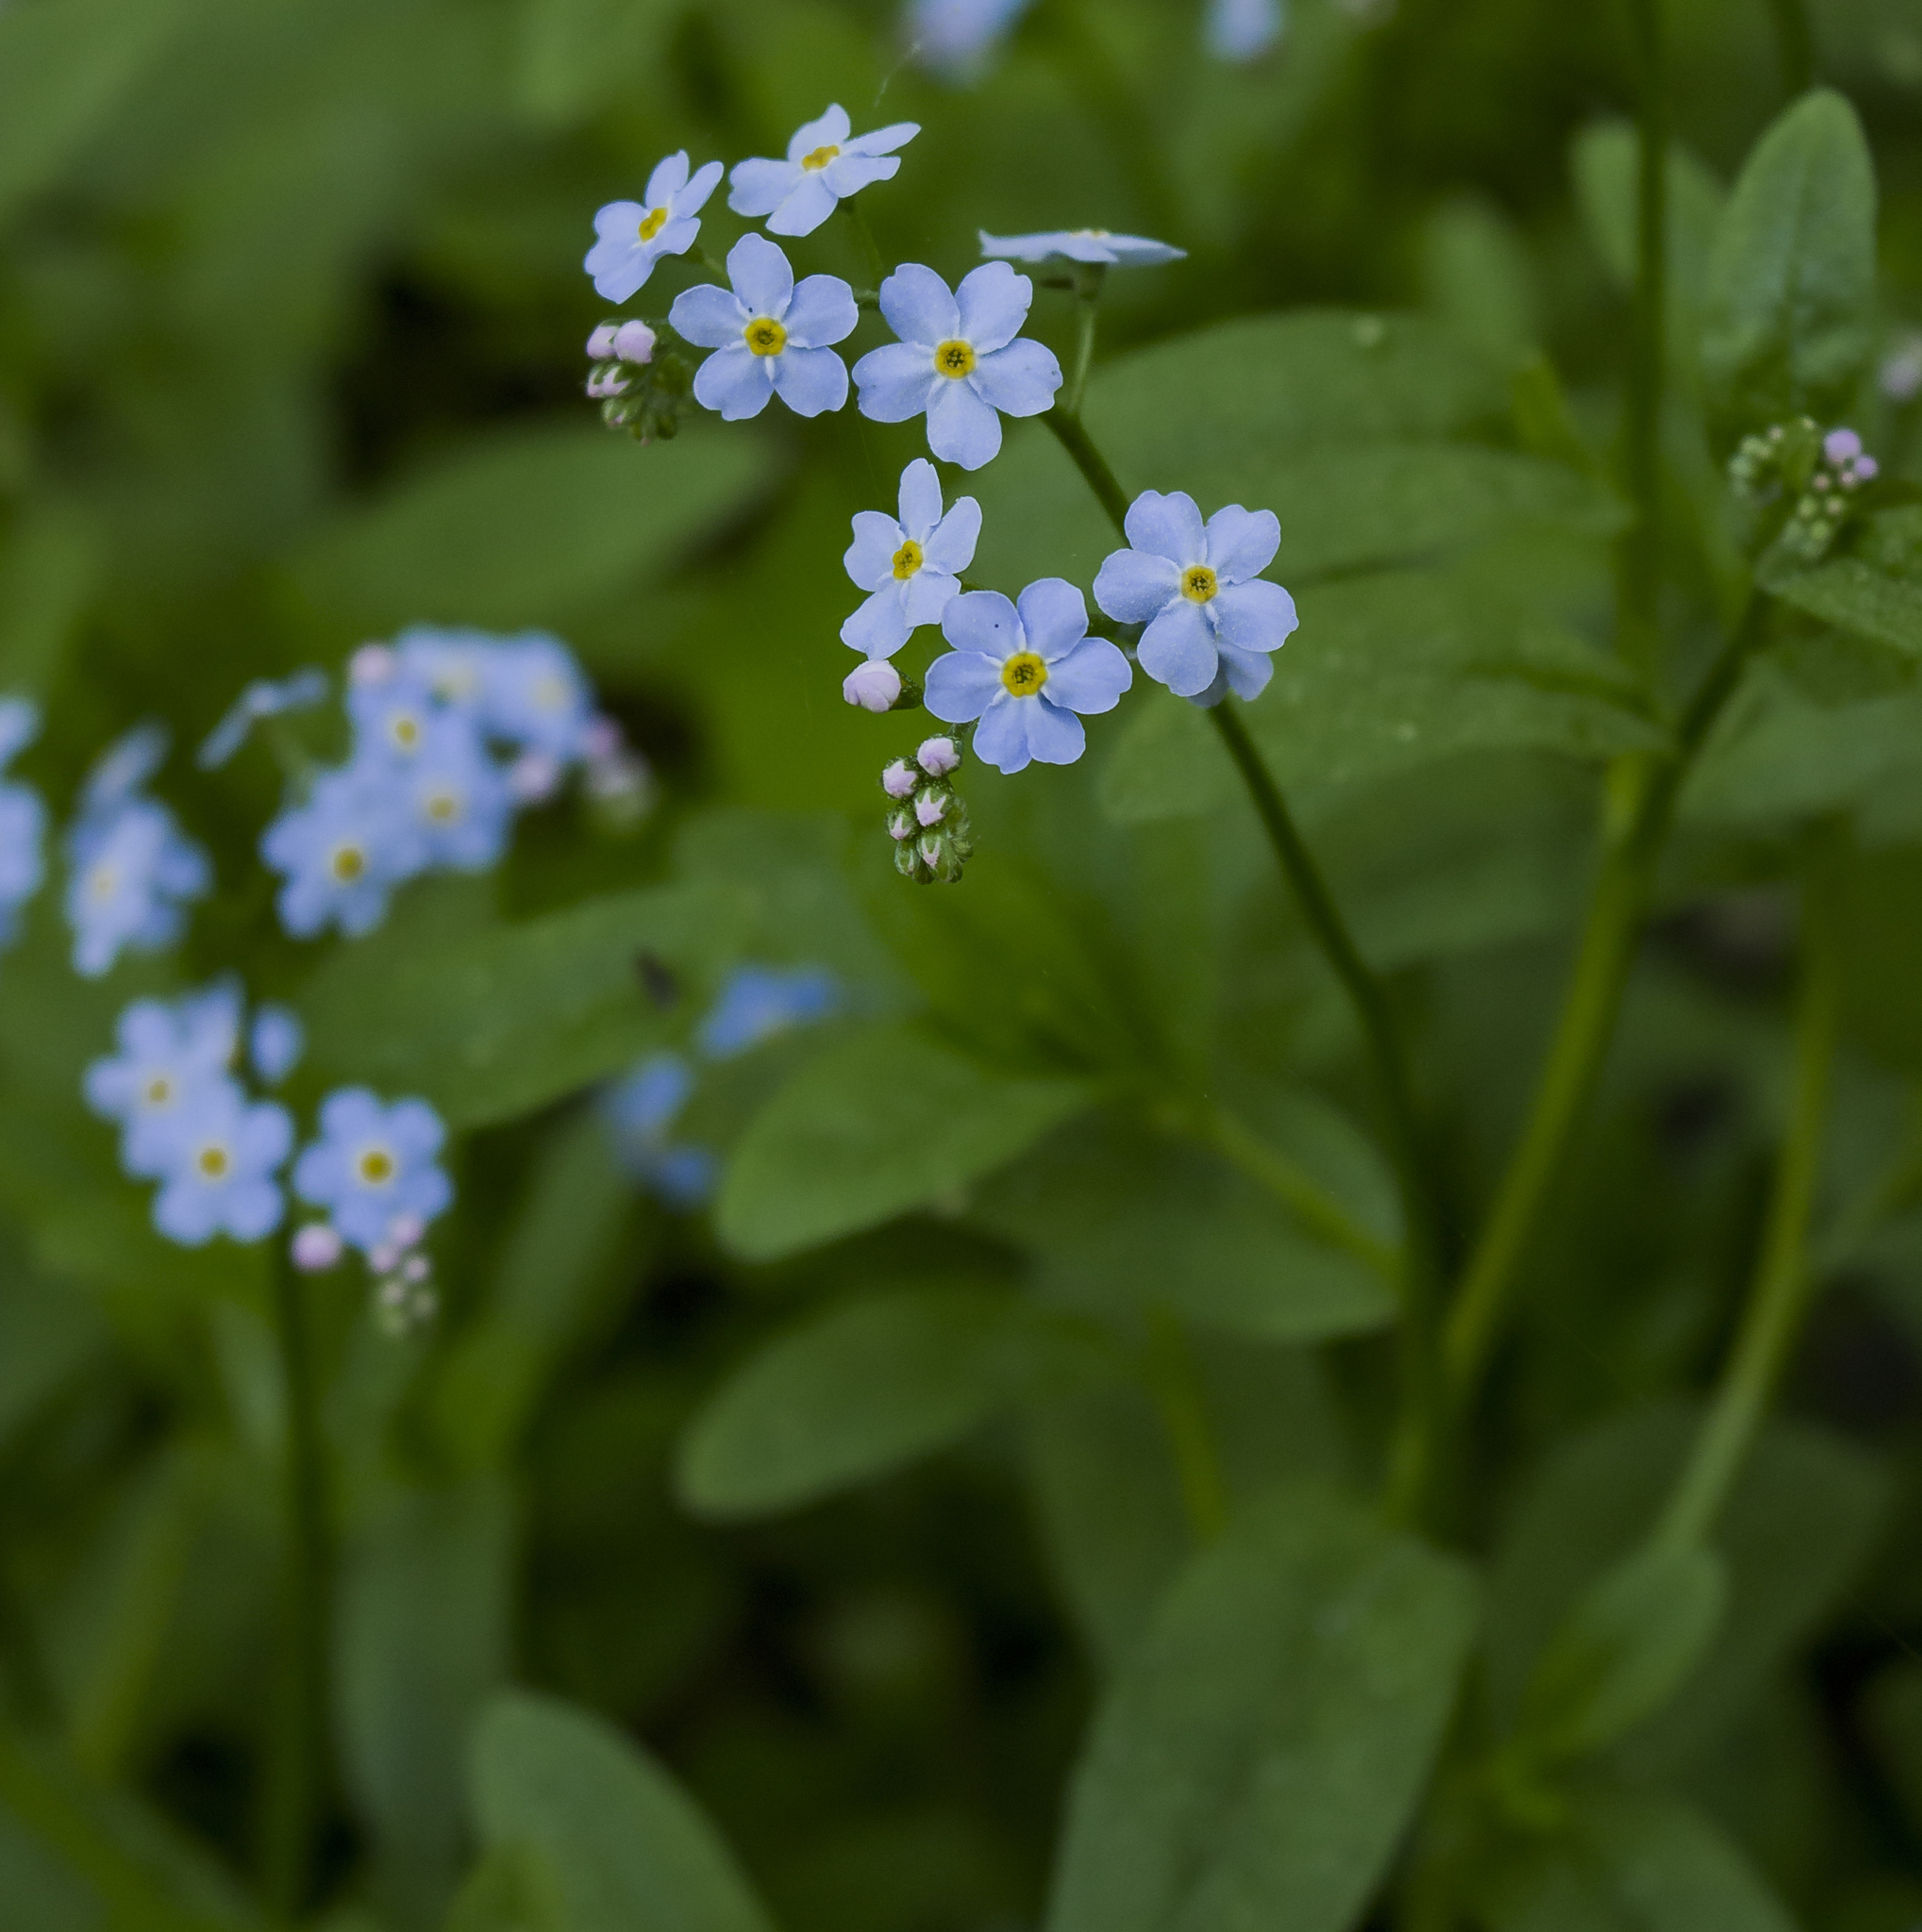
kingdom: Plantae
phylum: Tracheophyta
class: Magnoliopsida
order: Boraginales
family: Boraginaceae
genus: Myosotis
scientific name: Myosotis scorpioides
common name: Water forget-me-not
